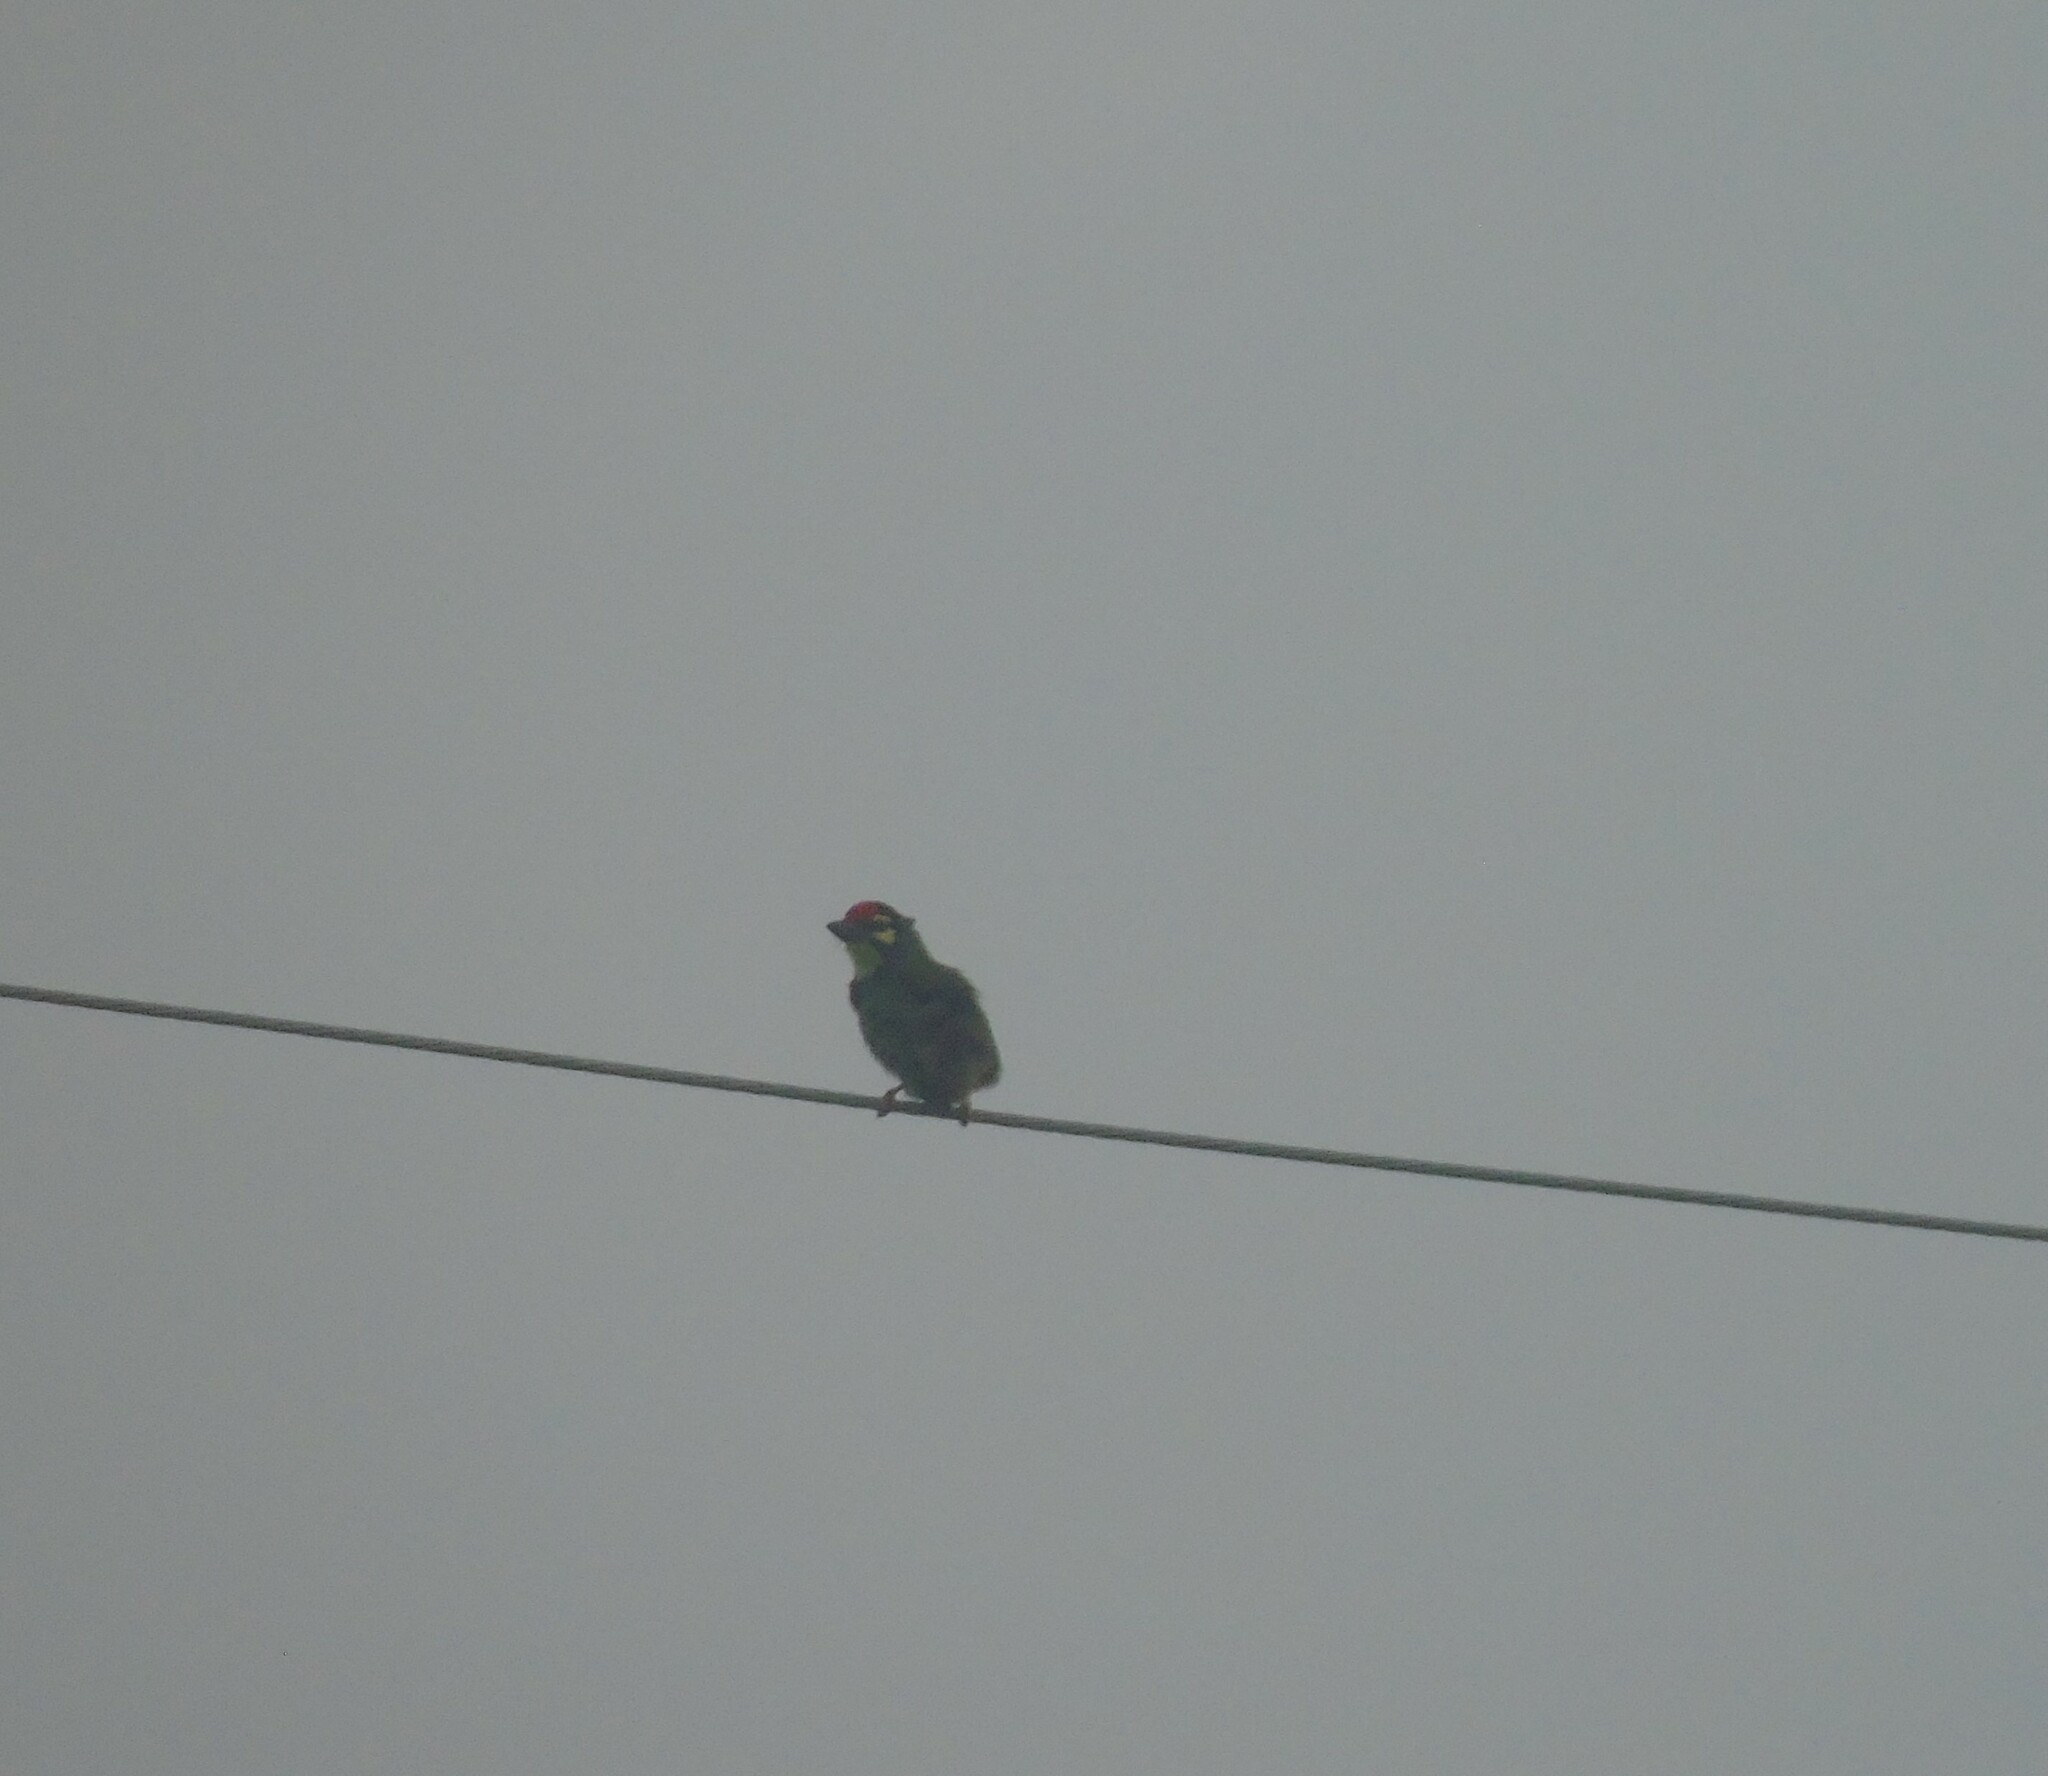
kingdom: Animalia
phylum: Chordata
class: Aves
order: Piciformes
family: Megalaimidae
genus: Psilopogon
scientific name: Psilopogon haemacephalus
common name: Coppersmith barbet
